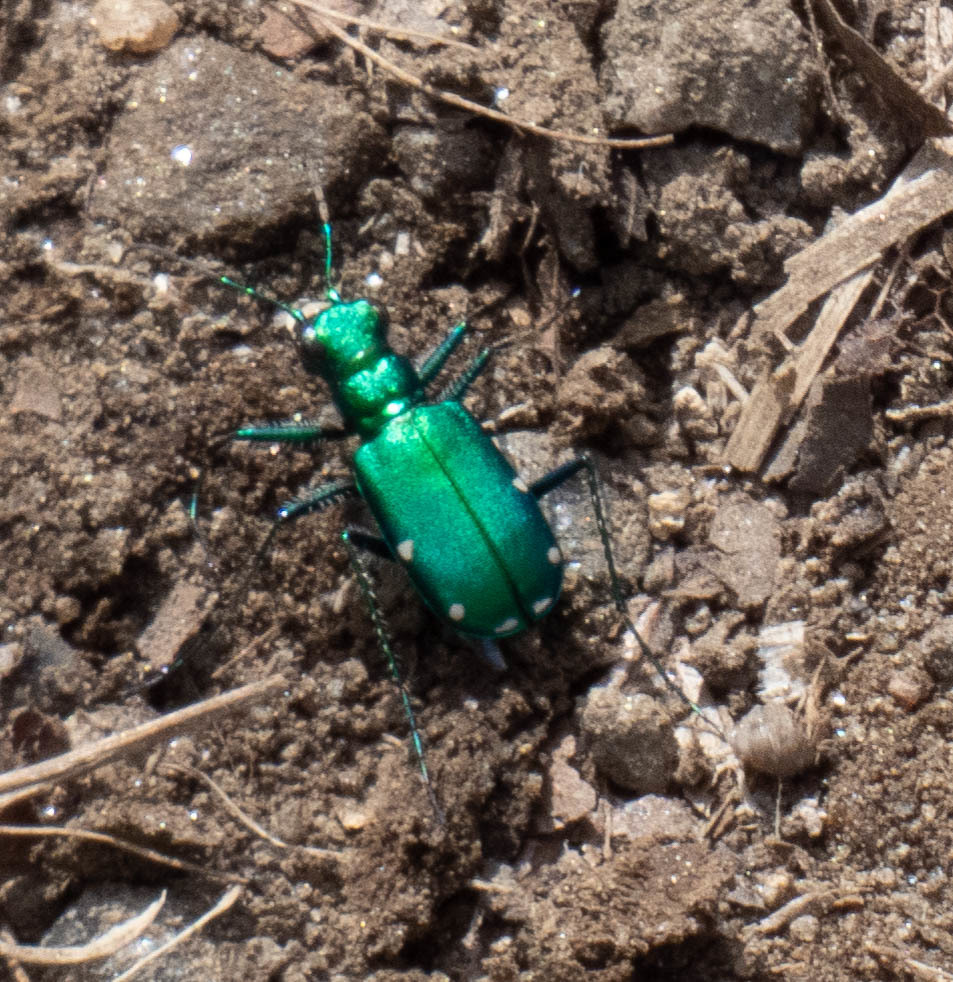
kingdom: Animalia
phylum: Arthropoda
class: Insecta
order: Coleoptera
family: Carabidae
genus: Cicindela
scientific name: Cicindela sexguttata
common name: Six-spotted tiger beetle
